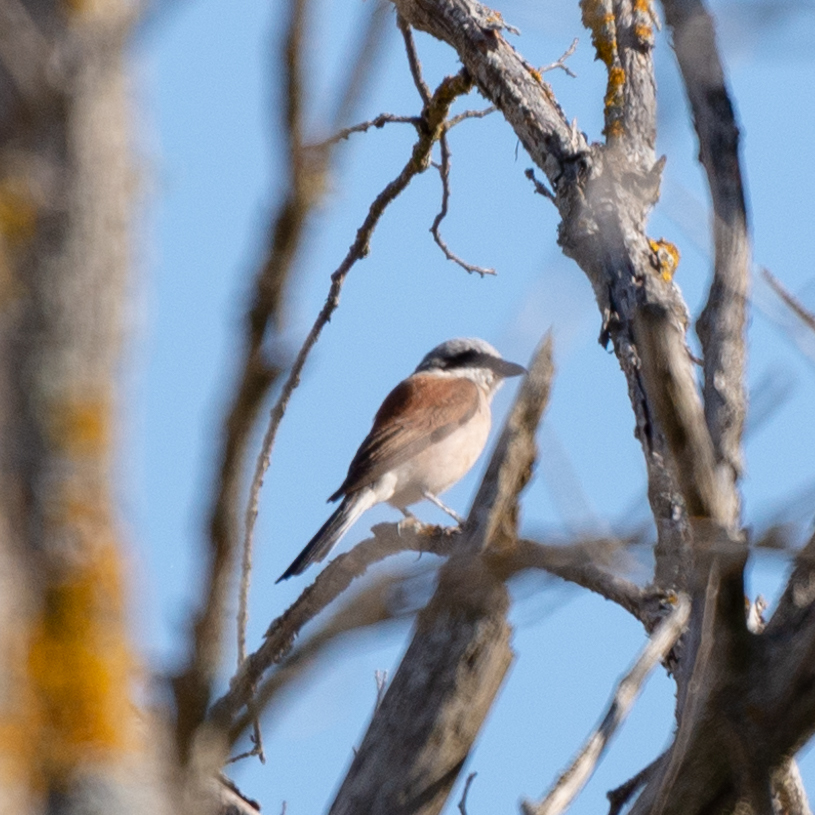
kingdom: Animalia
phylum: Chordata
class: Aves
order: Passeriformes
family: Laniidae
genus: Lanius
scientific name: Lanius collurio
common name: Red-backed shrike
